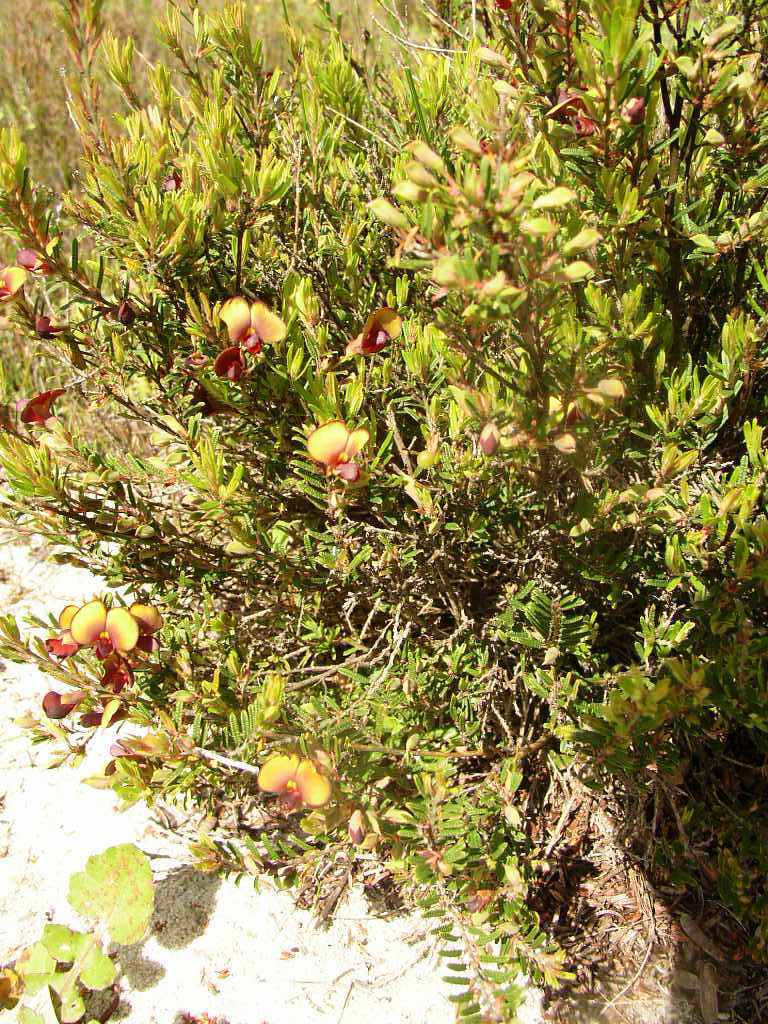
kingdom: Plantae
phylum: Tracheophyta
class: Magnoliopsida
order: Fabales
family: Fabaceae
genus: Bossiaea
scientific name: Bossiaea eriocarpa
